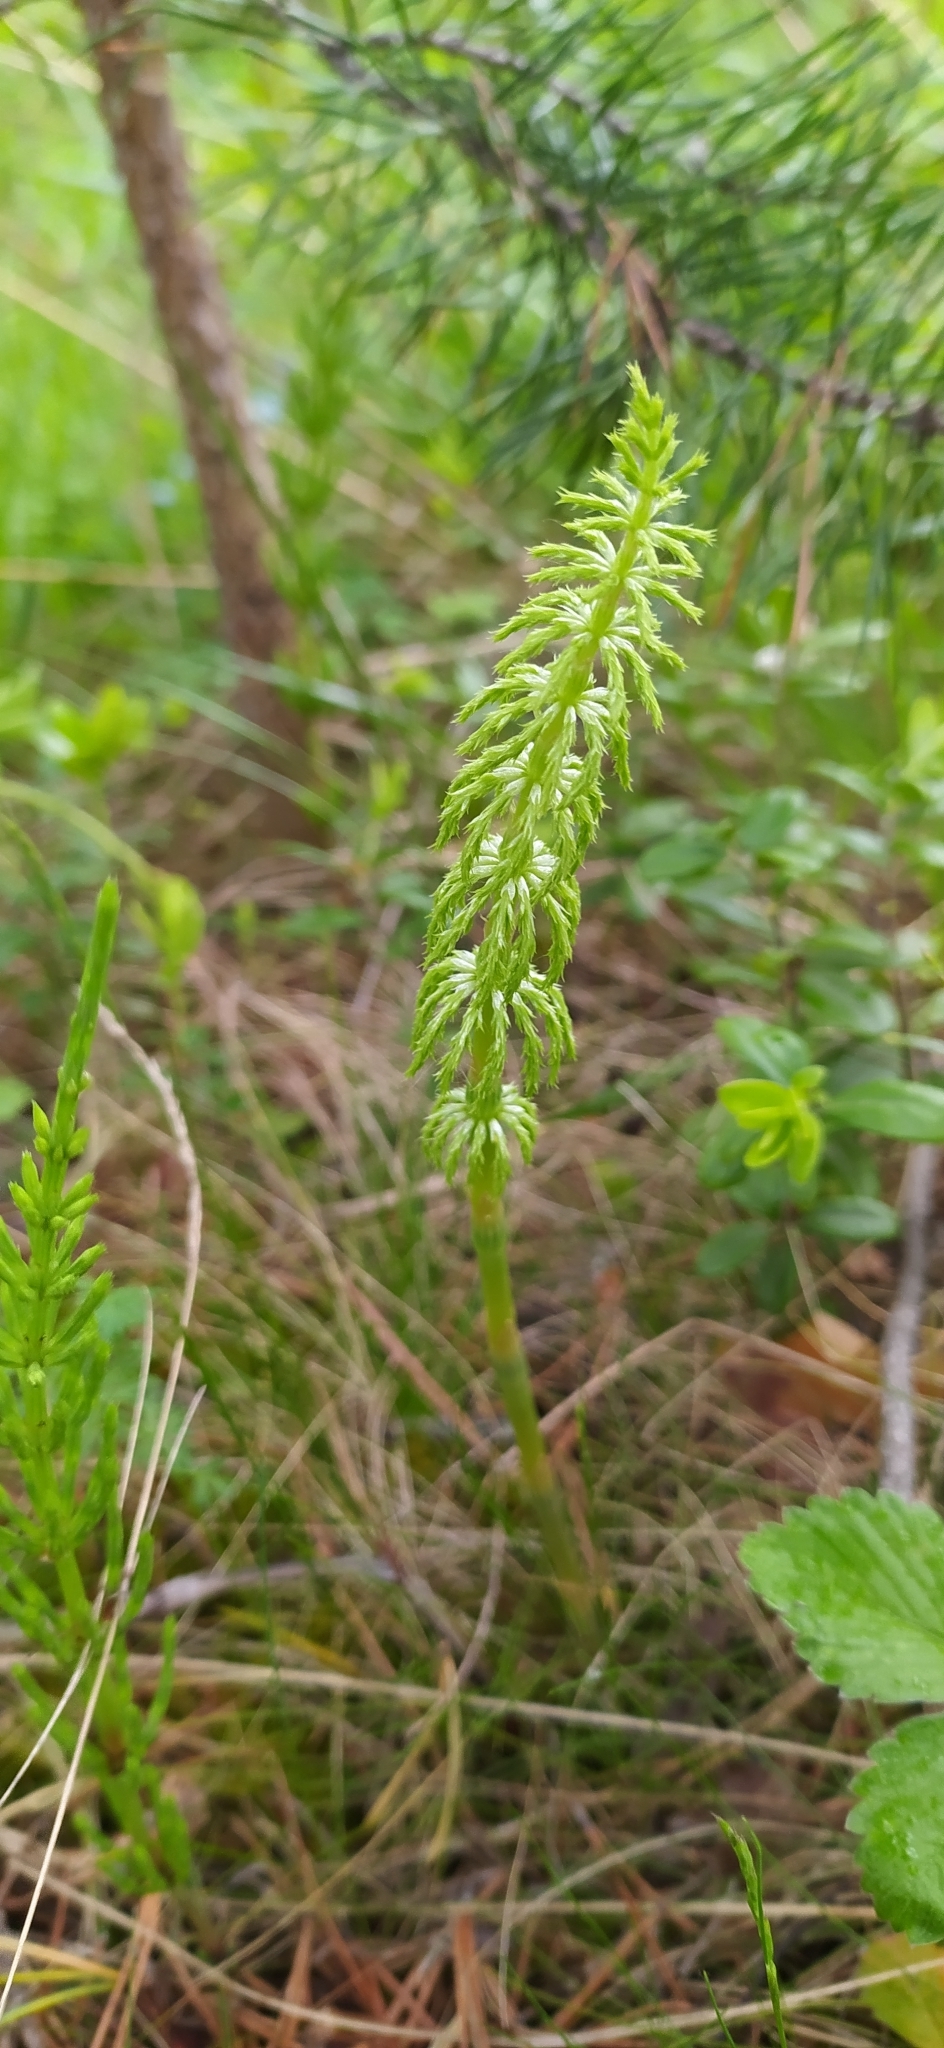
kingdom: Plantae
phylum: Tracheophyta
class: Polypodiopsida
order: Equisetales
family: Equisetaceae
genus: Equisetum
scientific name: Equisetum sylvaticum
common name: Wood horsetail
